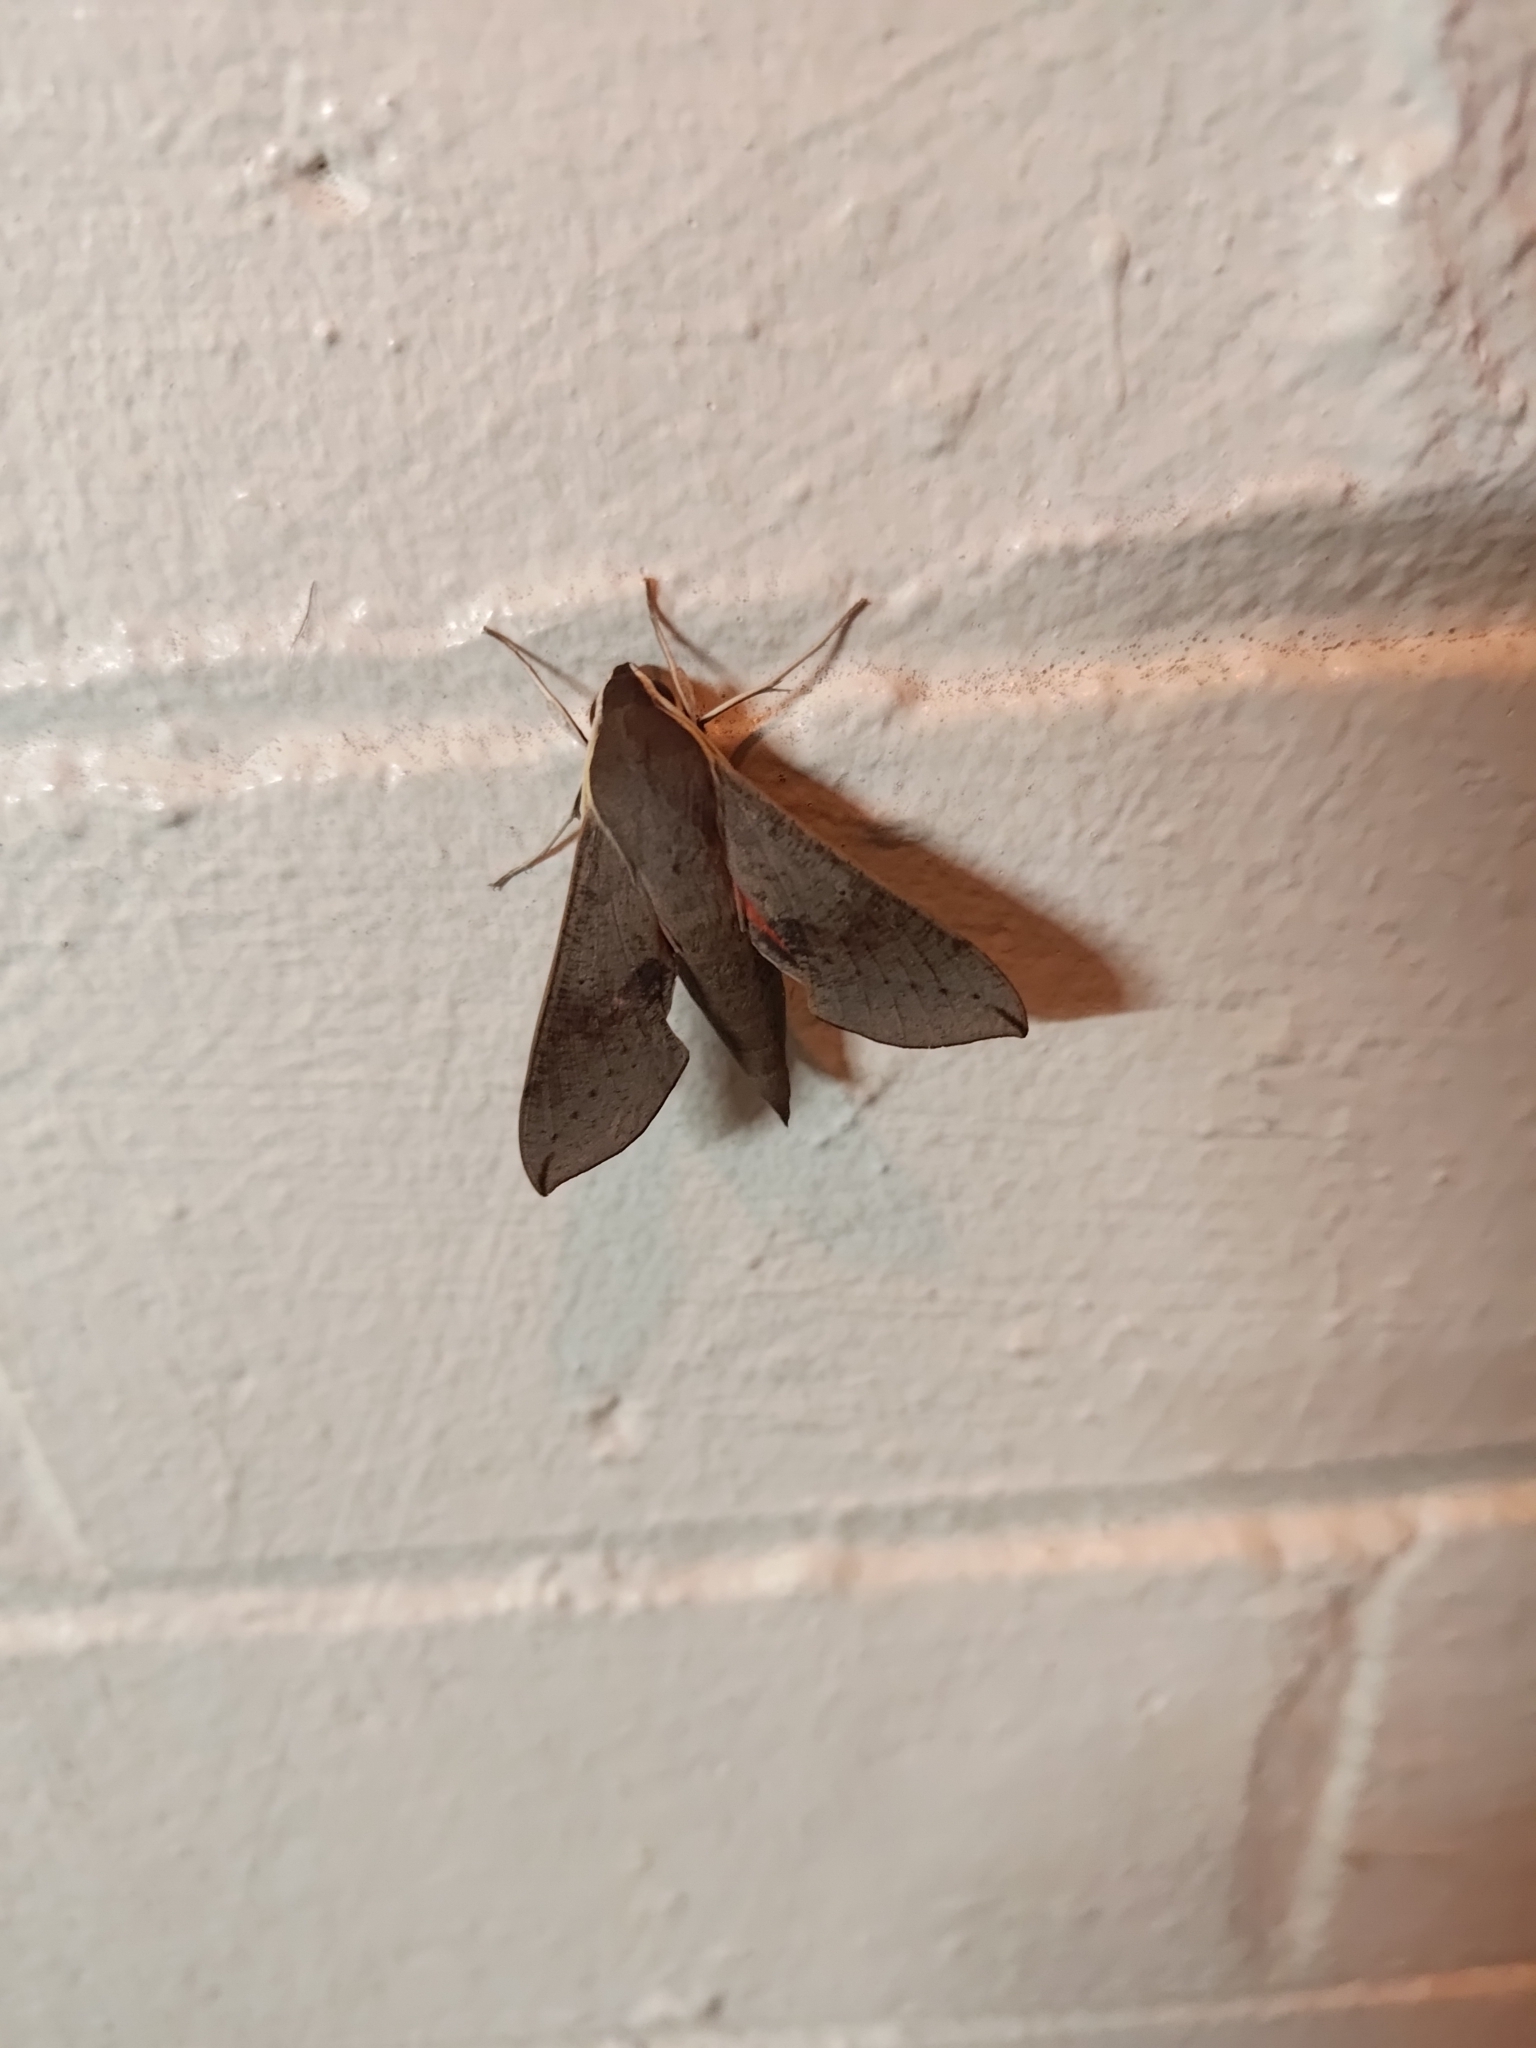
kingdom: Animalia
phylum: Arthropoda
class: Insecta
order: Lepidoptera
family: Sphingidae
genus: Hippotion
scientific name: Hippotion scrofa
